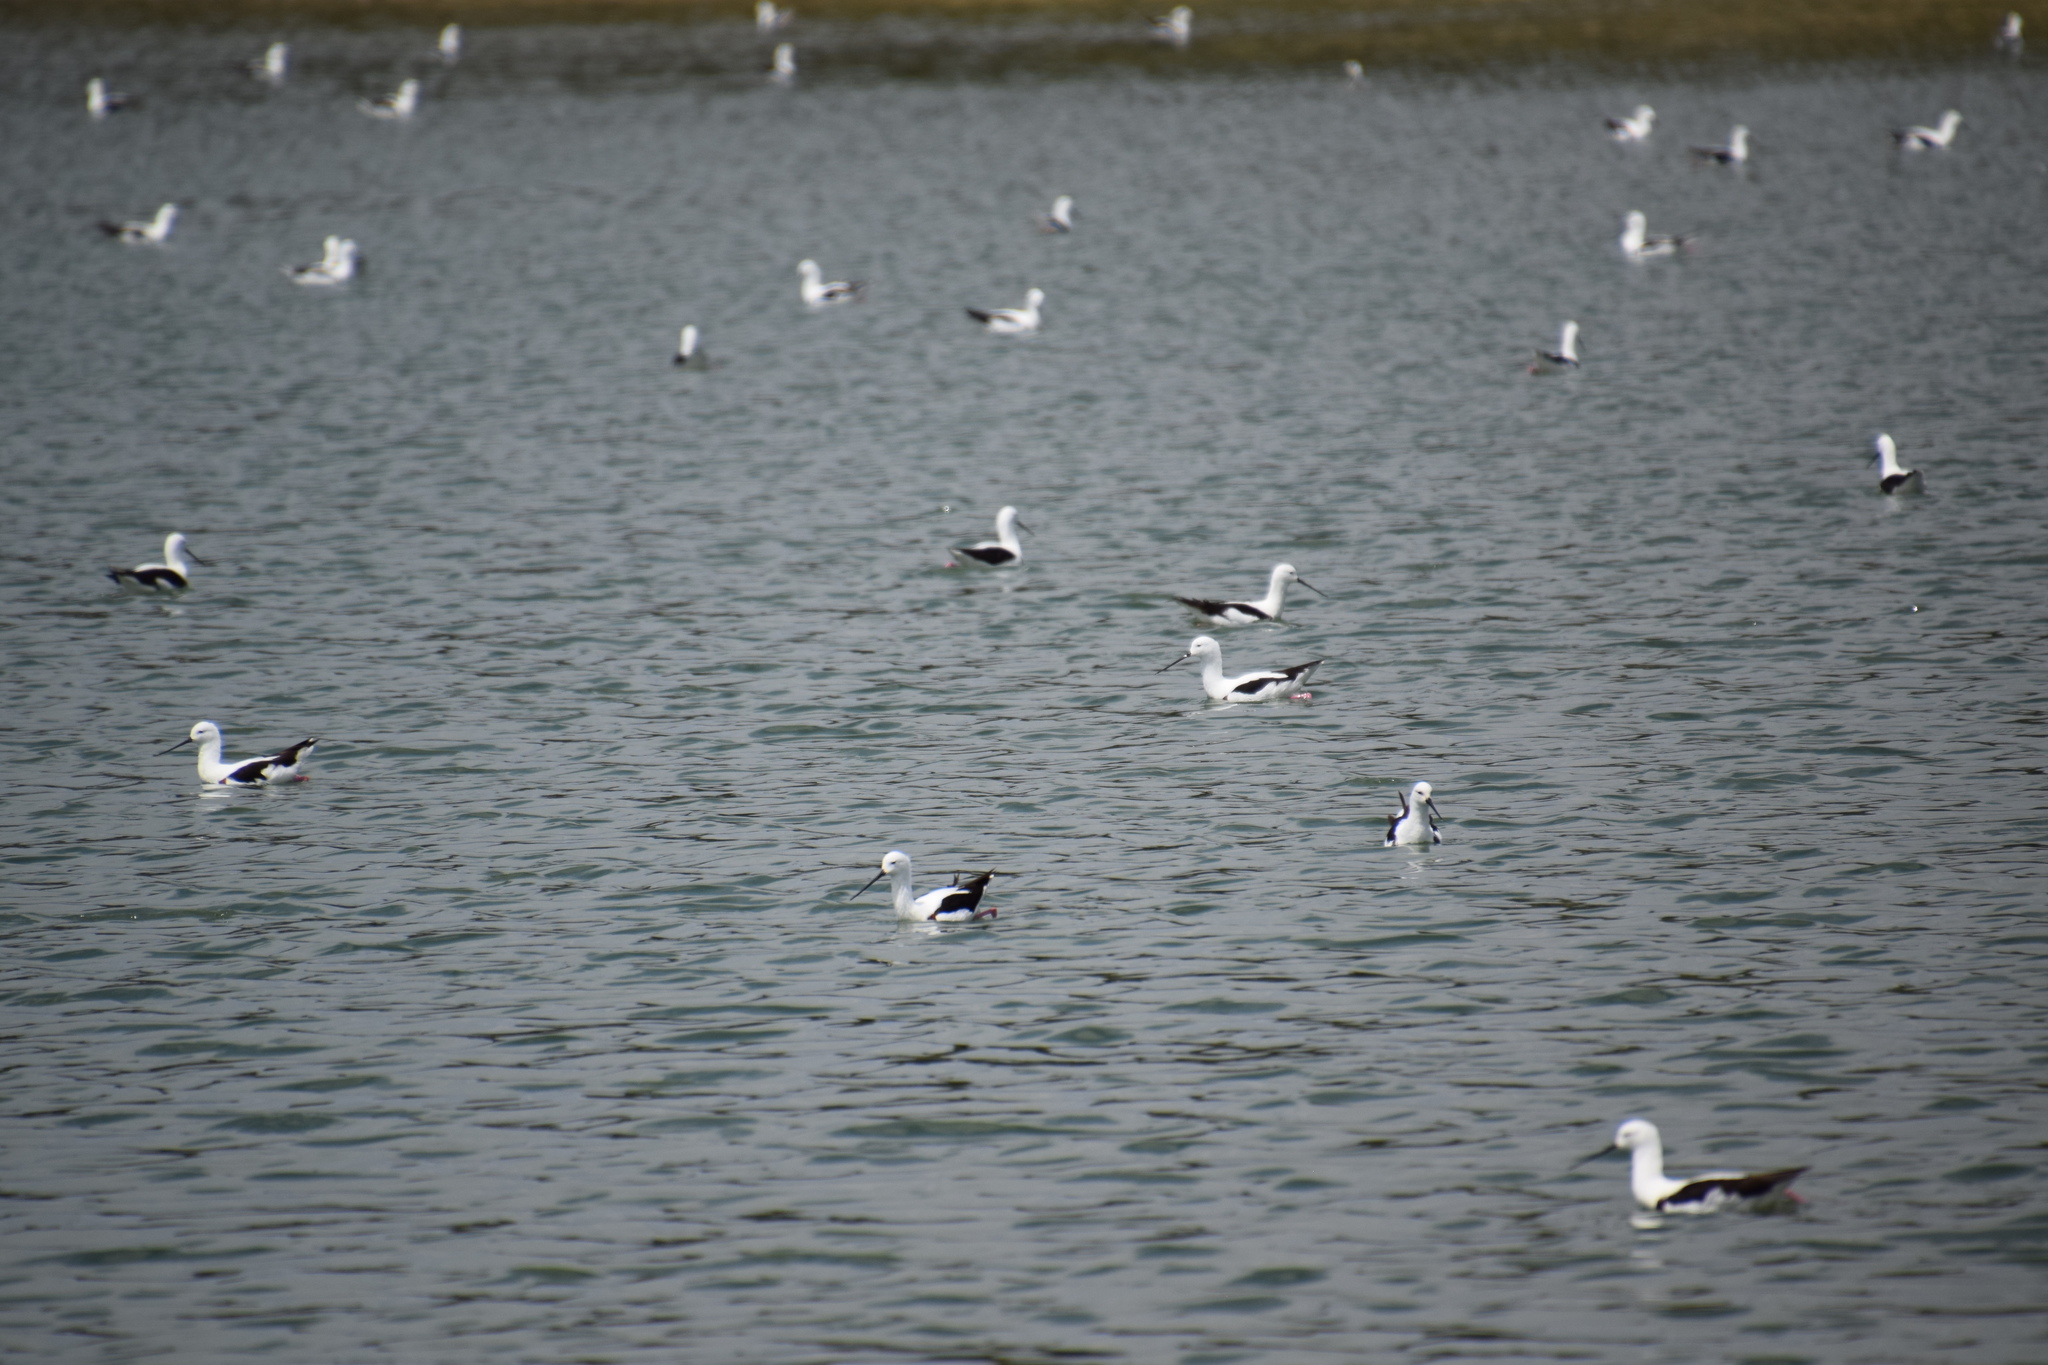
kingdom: Animalia
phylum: Chordata
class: Aves
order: Charadriiformes
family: Recurvirostridae
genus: Cladorhynchus
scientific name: Cladorhynchus leucocephalus
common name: Banded stilt
